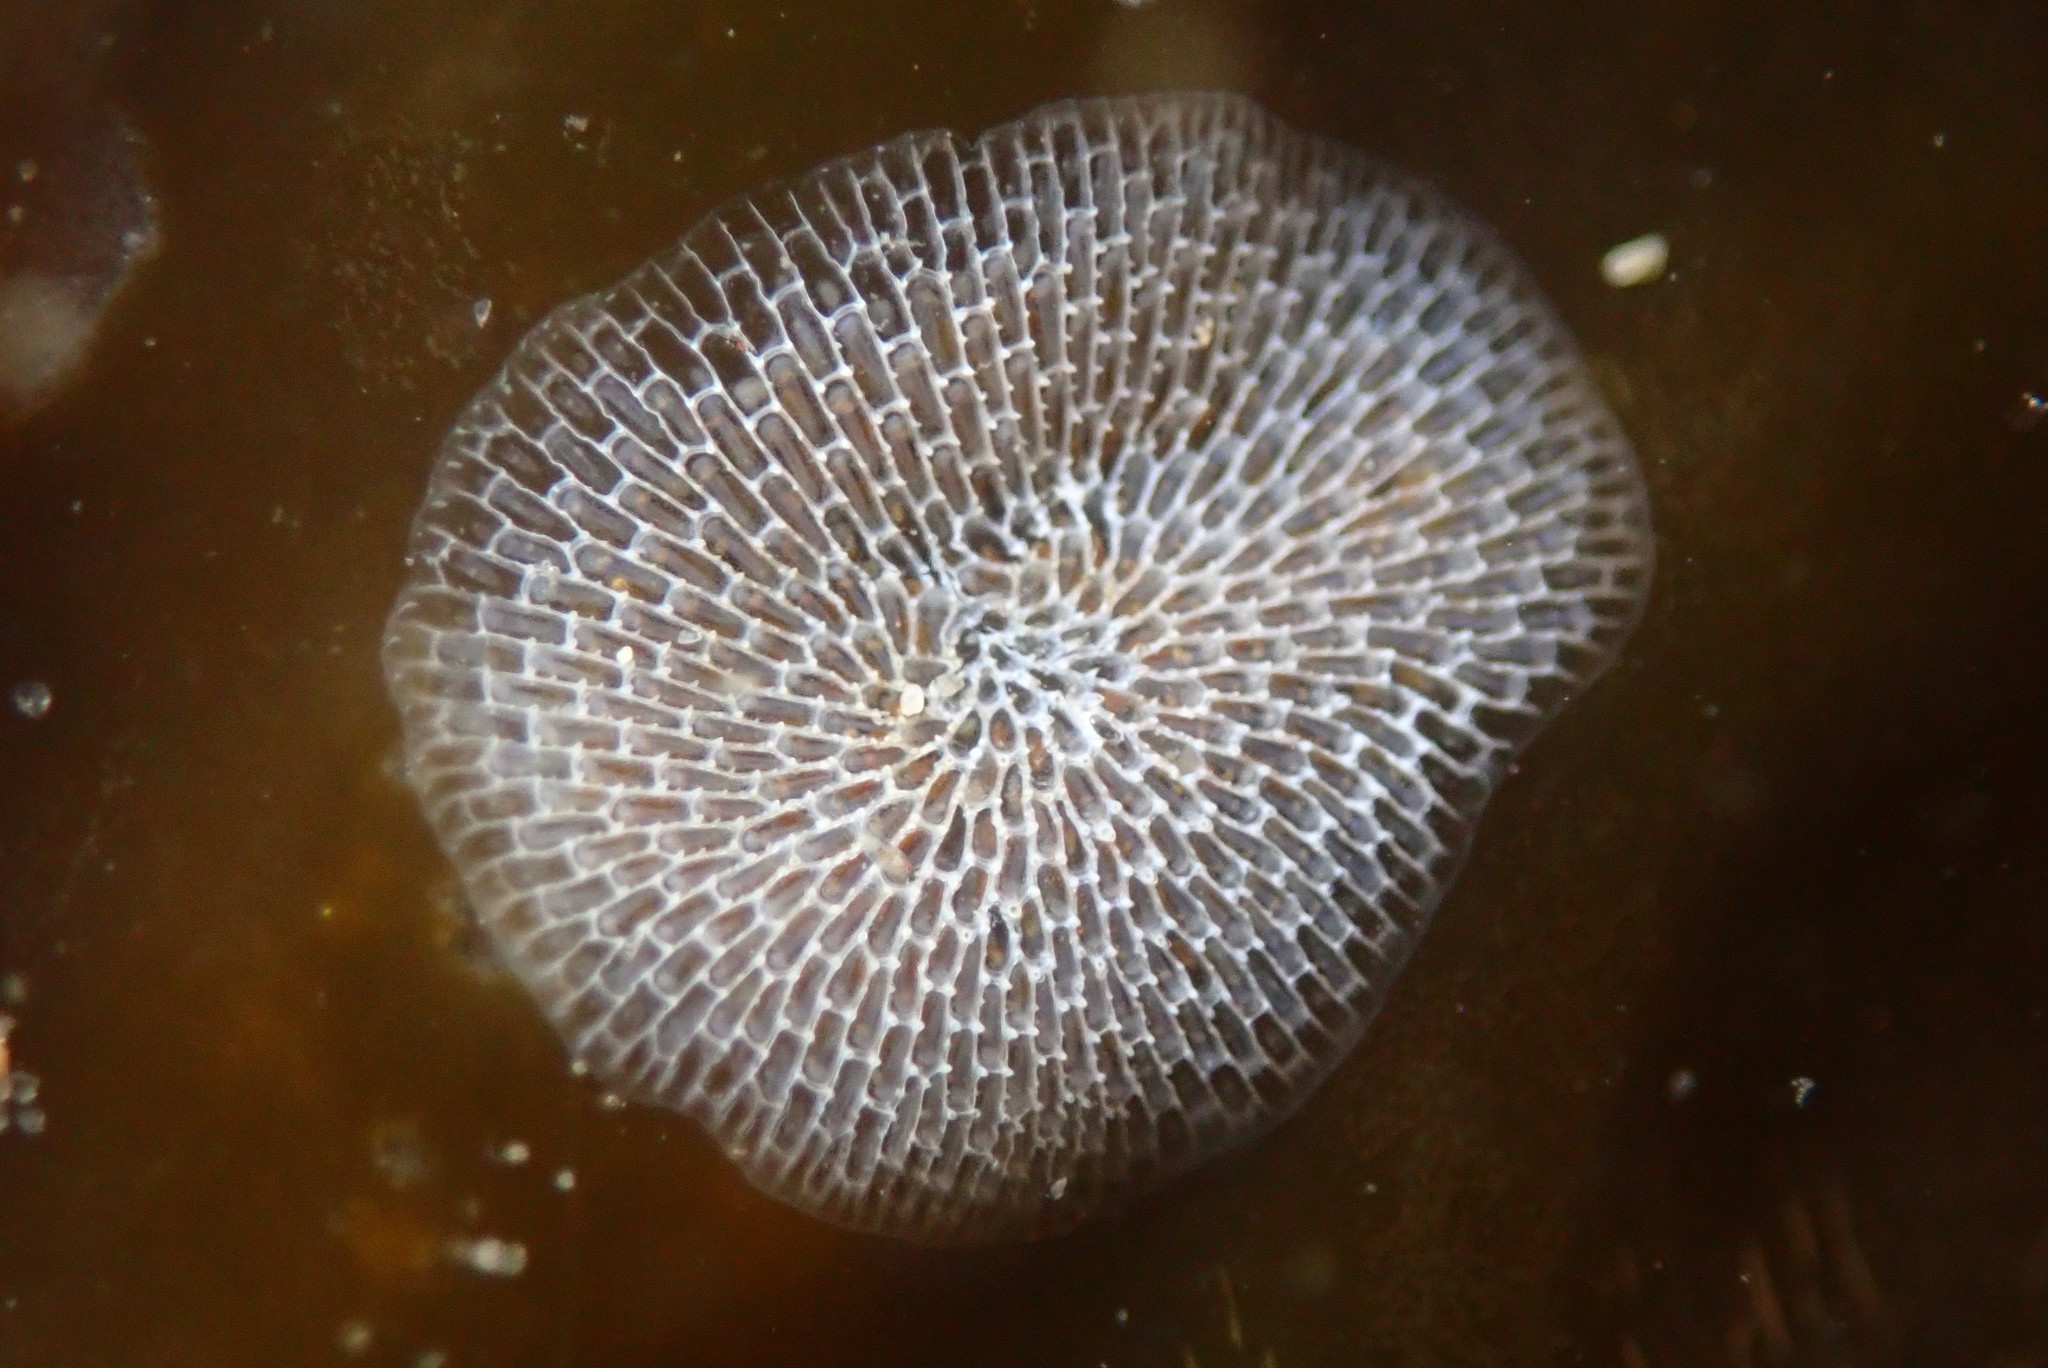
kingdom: Animalia
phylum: Bryozoa
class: Gymnolaemata
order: Cheilostomatida
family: Membraniporidae
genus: Membranipora
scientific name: Membranipora membranacea
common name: Sea mat
